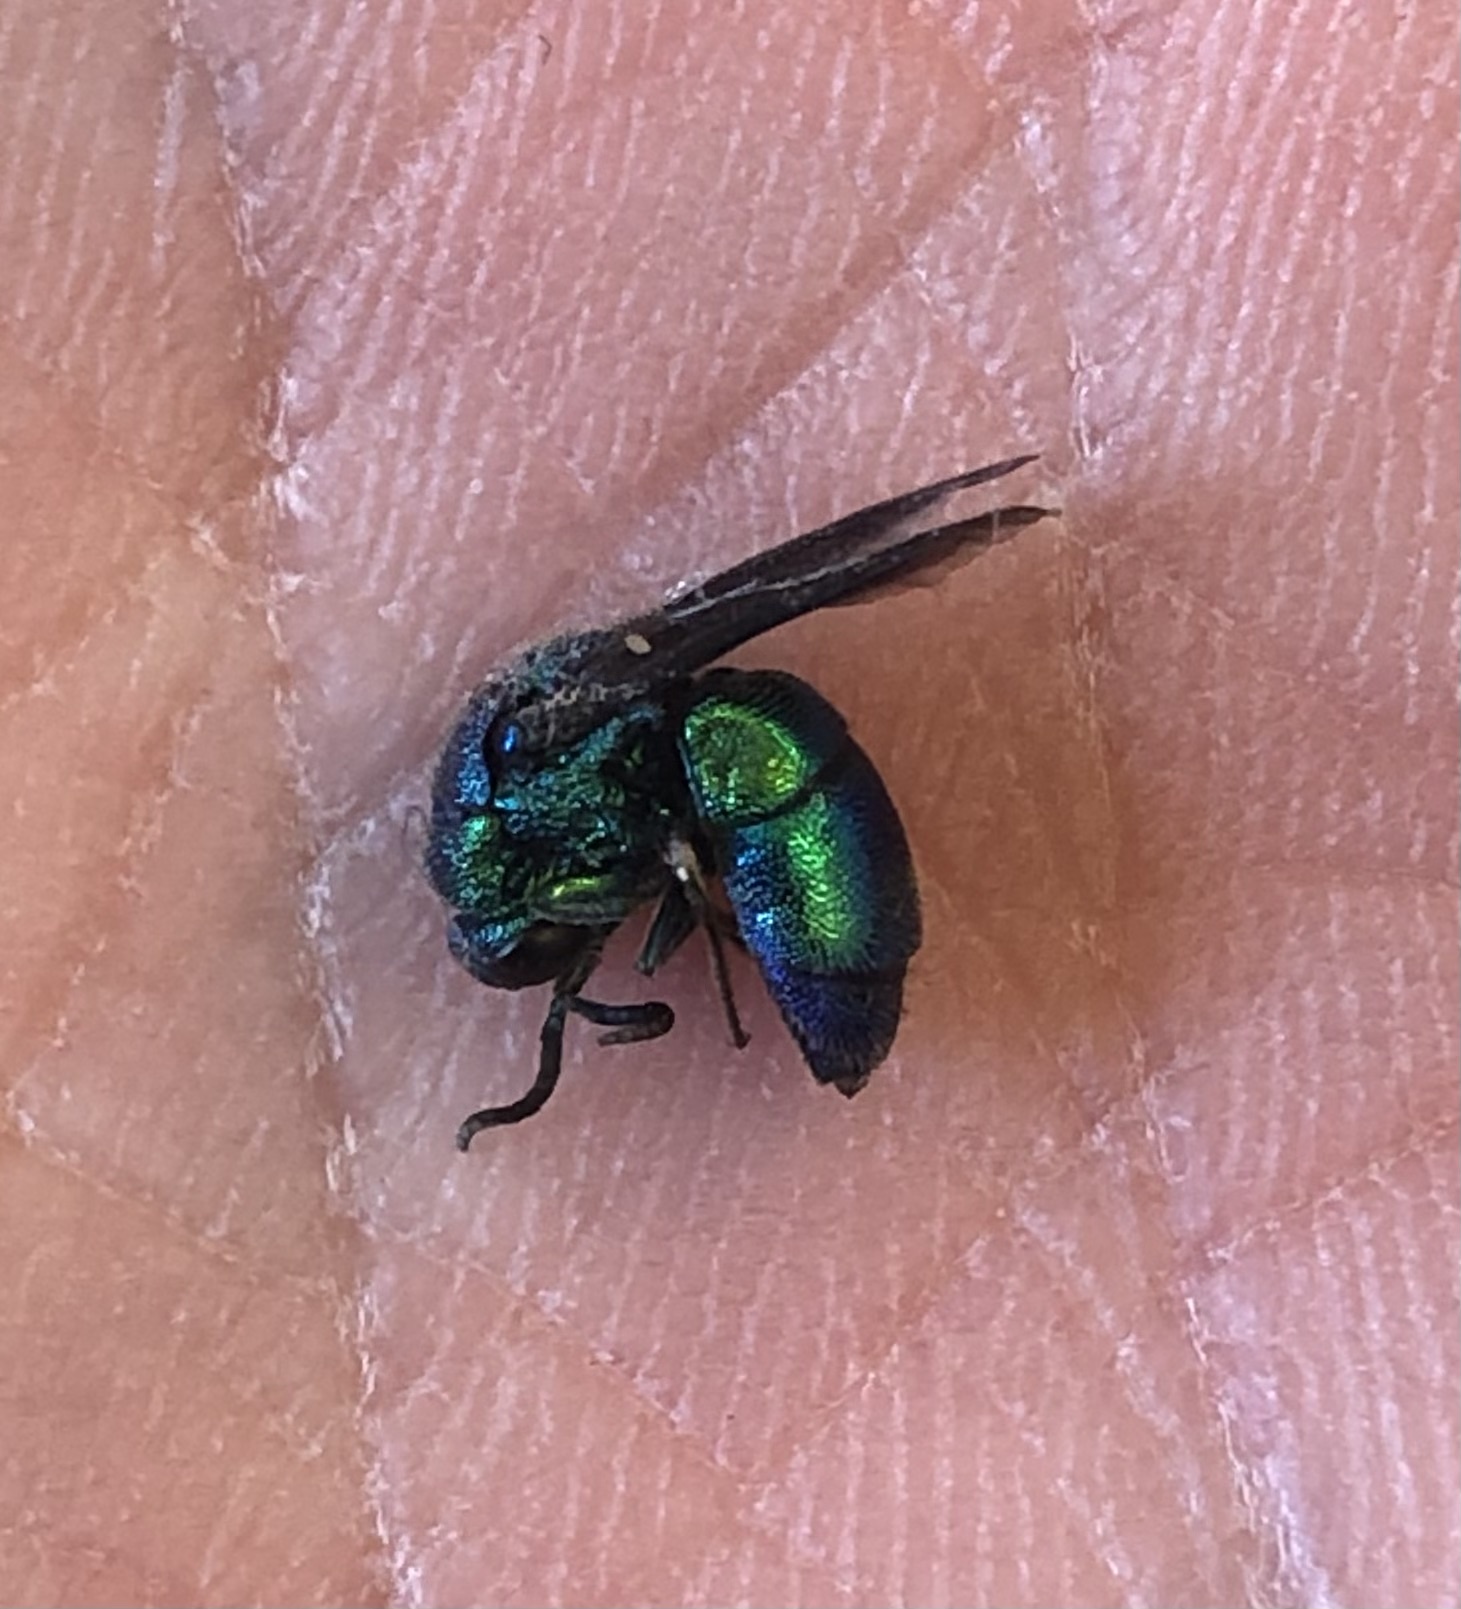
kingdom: Animalia
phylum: Arthropoda
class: Insecta
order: Hymenoptera
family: Chrysididae
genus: Chrysis
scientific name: Chrysis angolensis
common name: Cuckoo wasp
